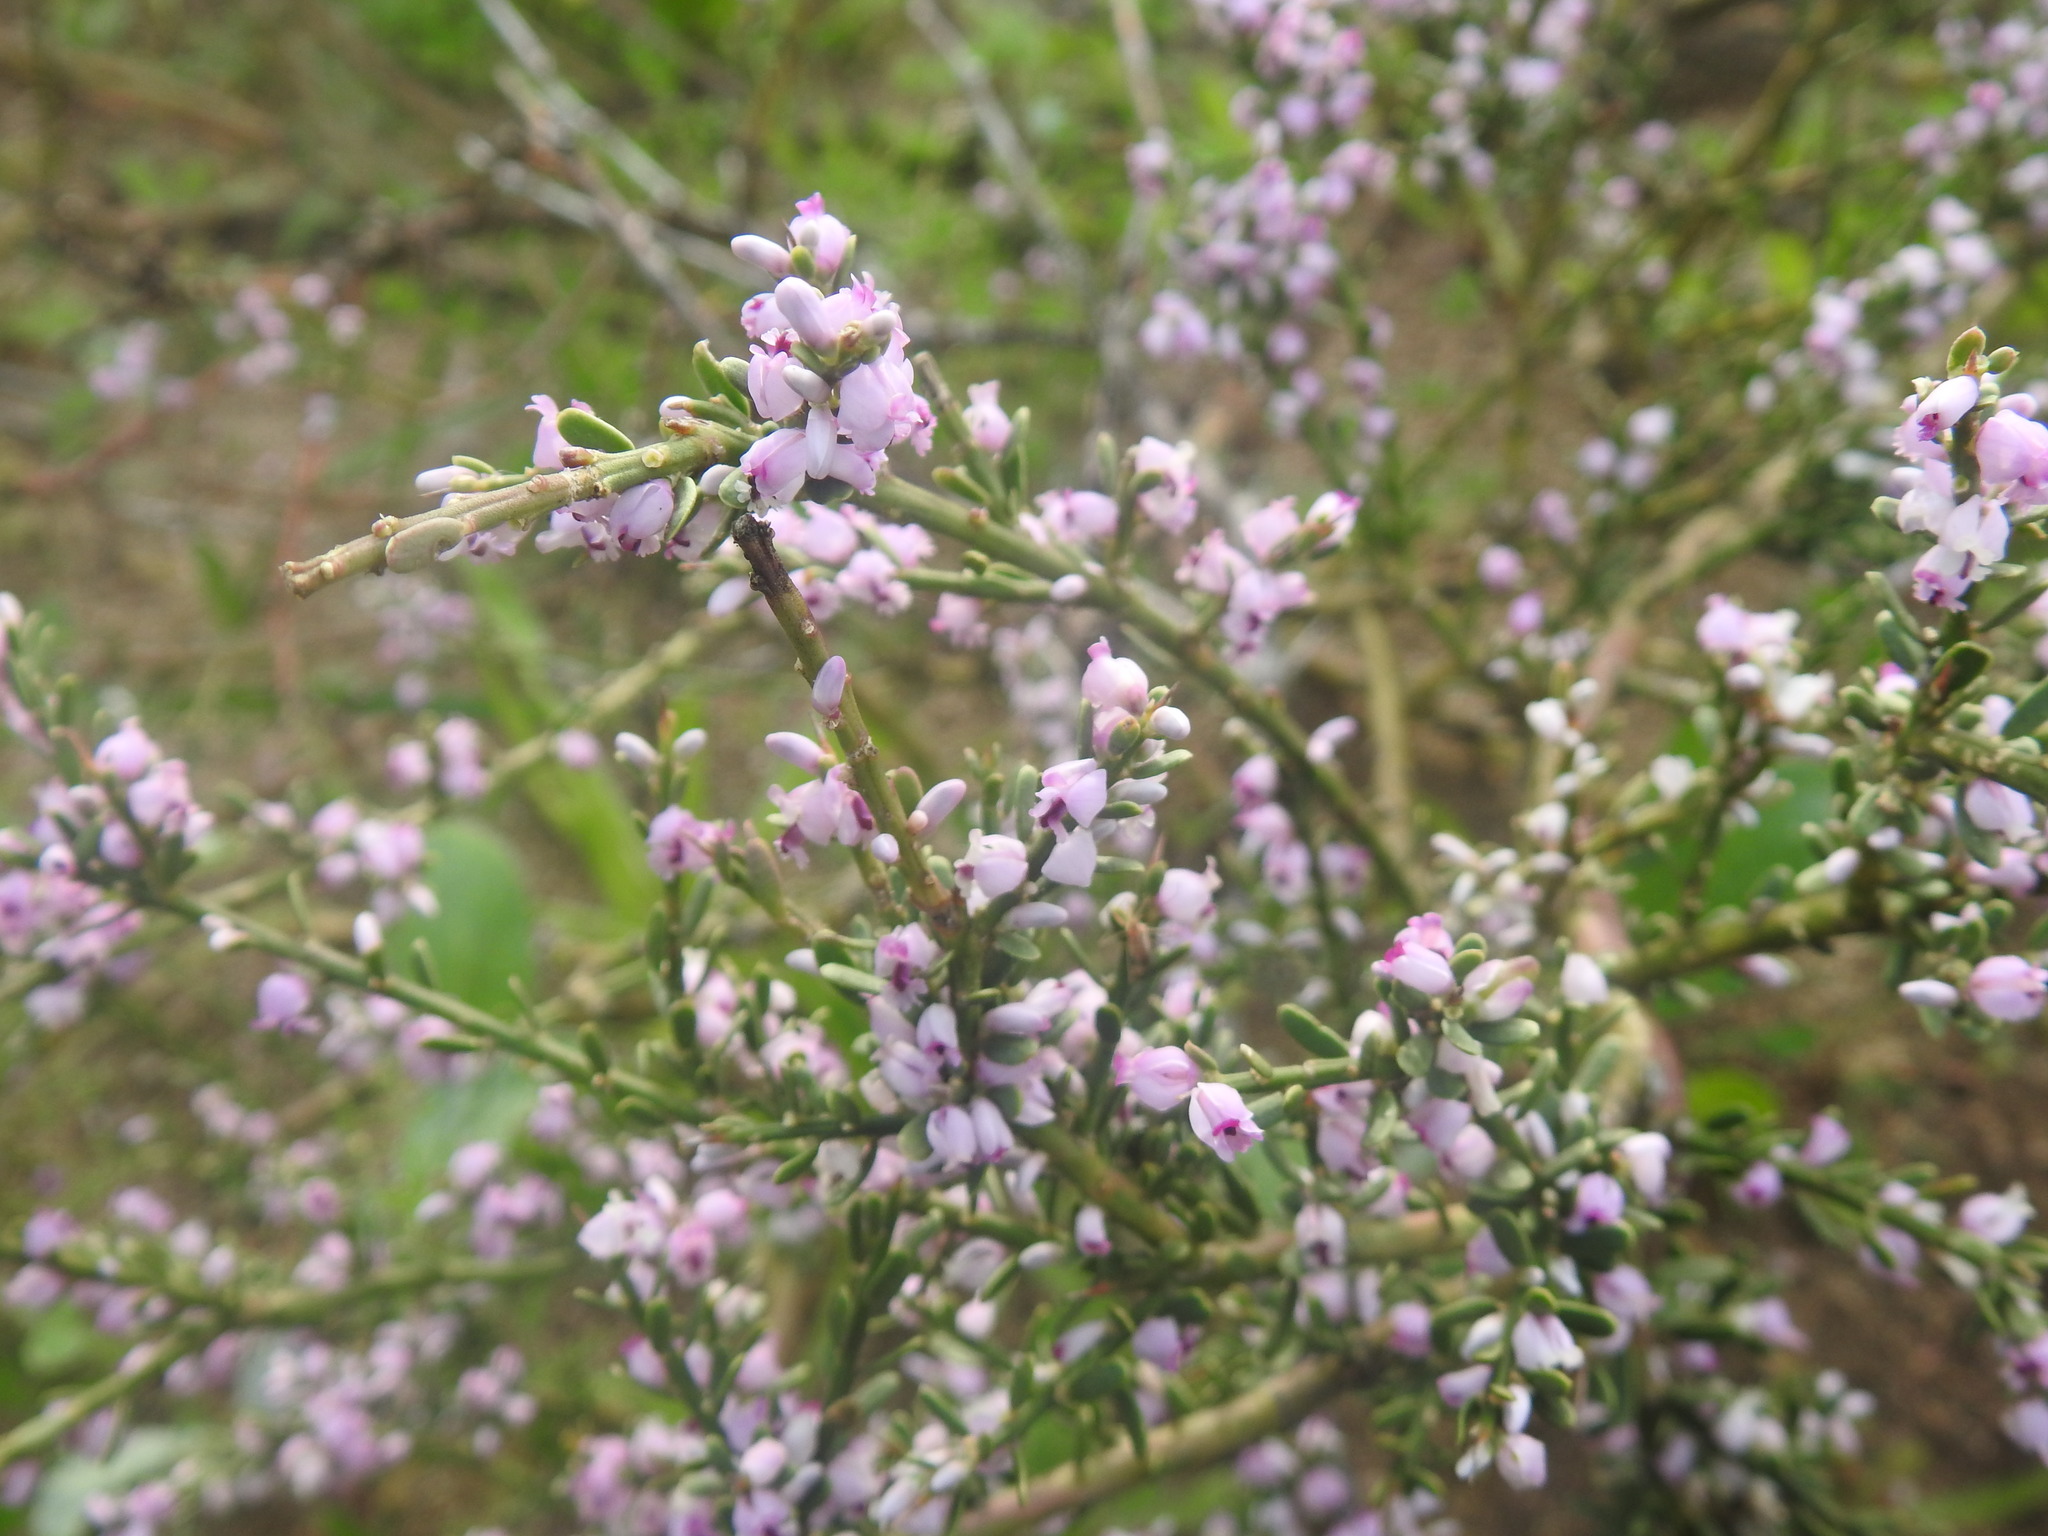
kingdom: Plantae
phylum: Tracheophyta
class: Magnoliopsida
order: Fabales
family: Polygalaceae
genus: Muraltia
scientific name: Muraltia spinosa
